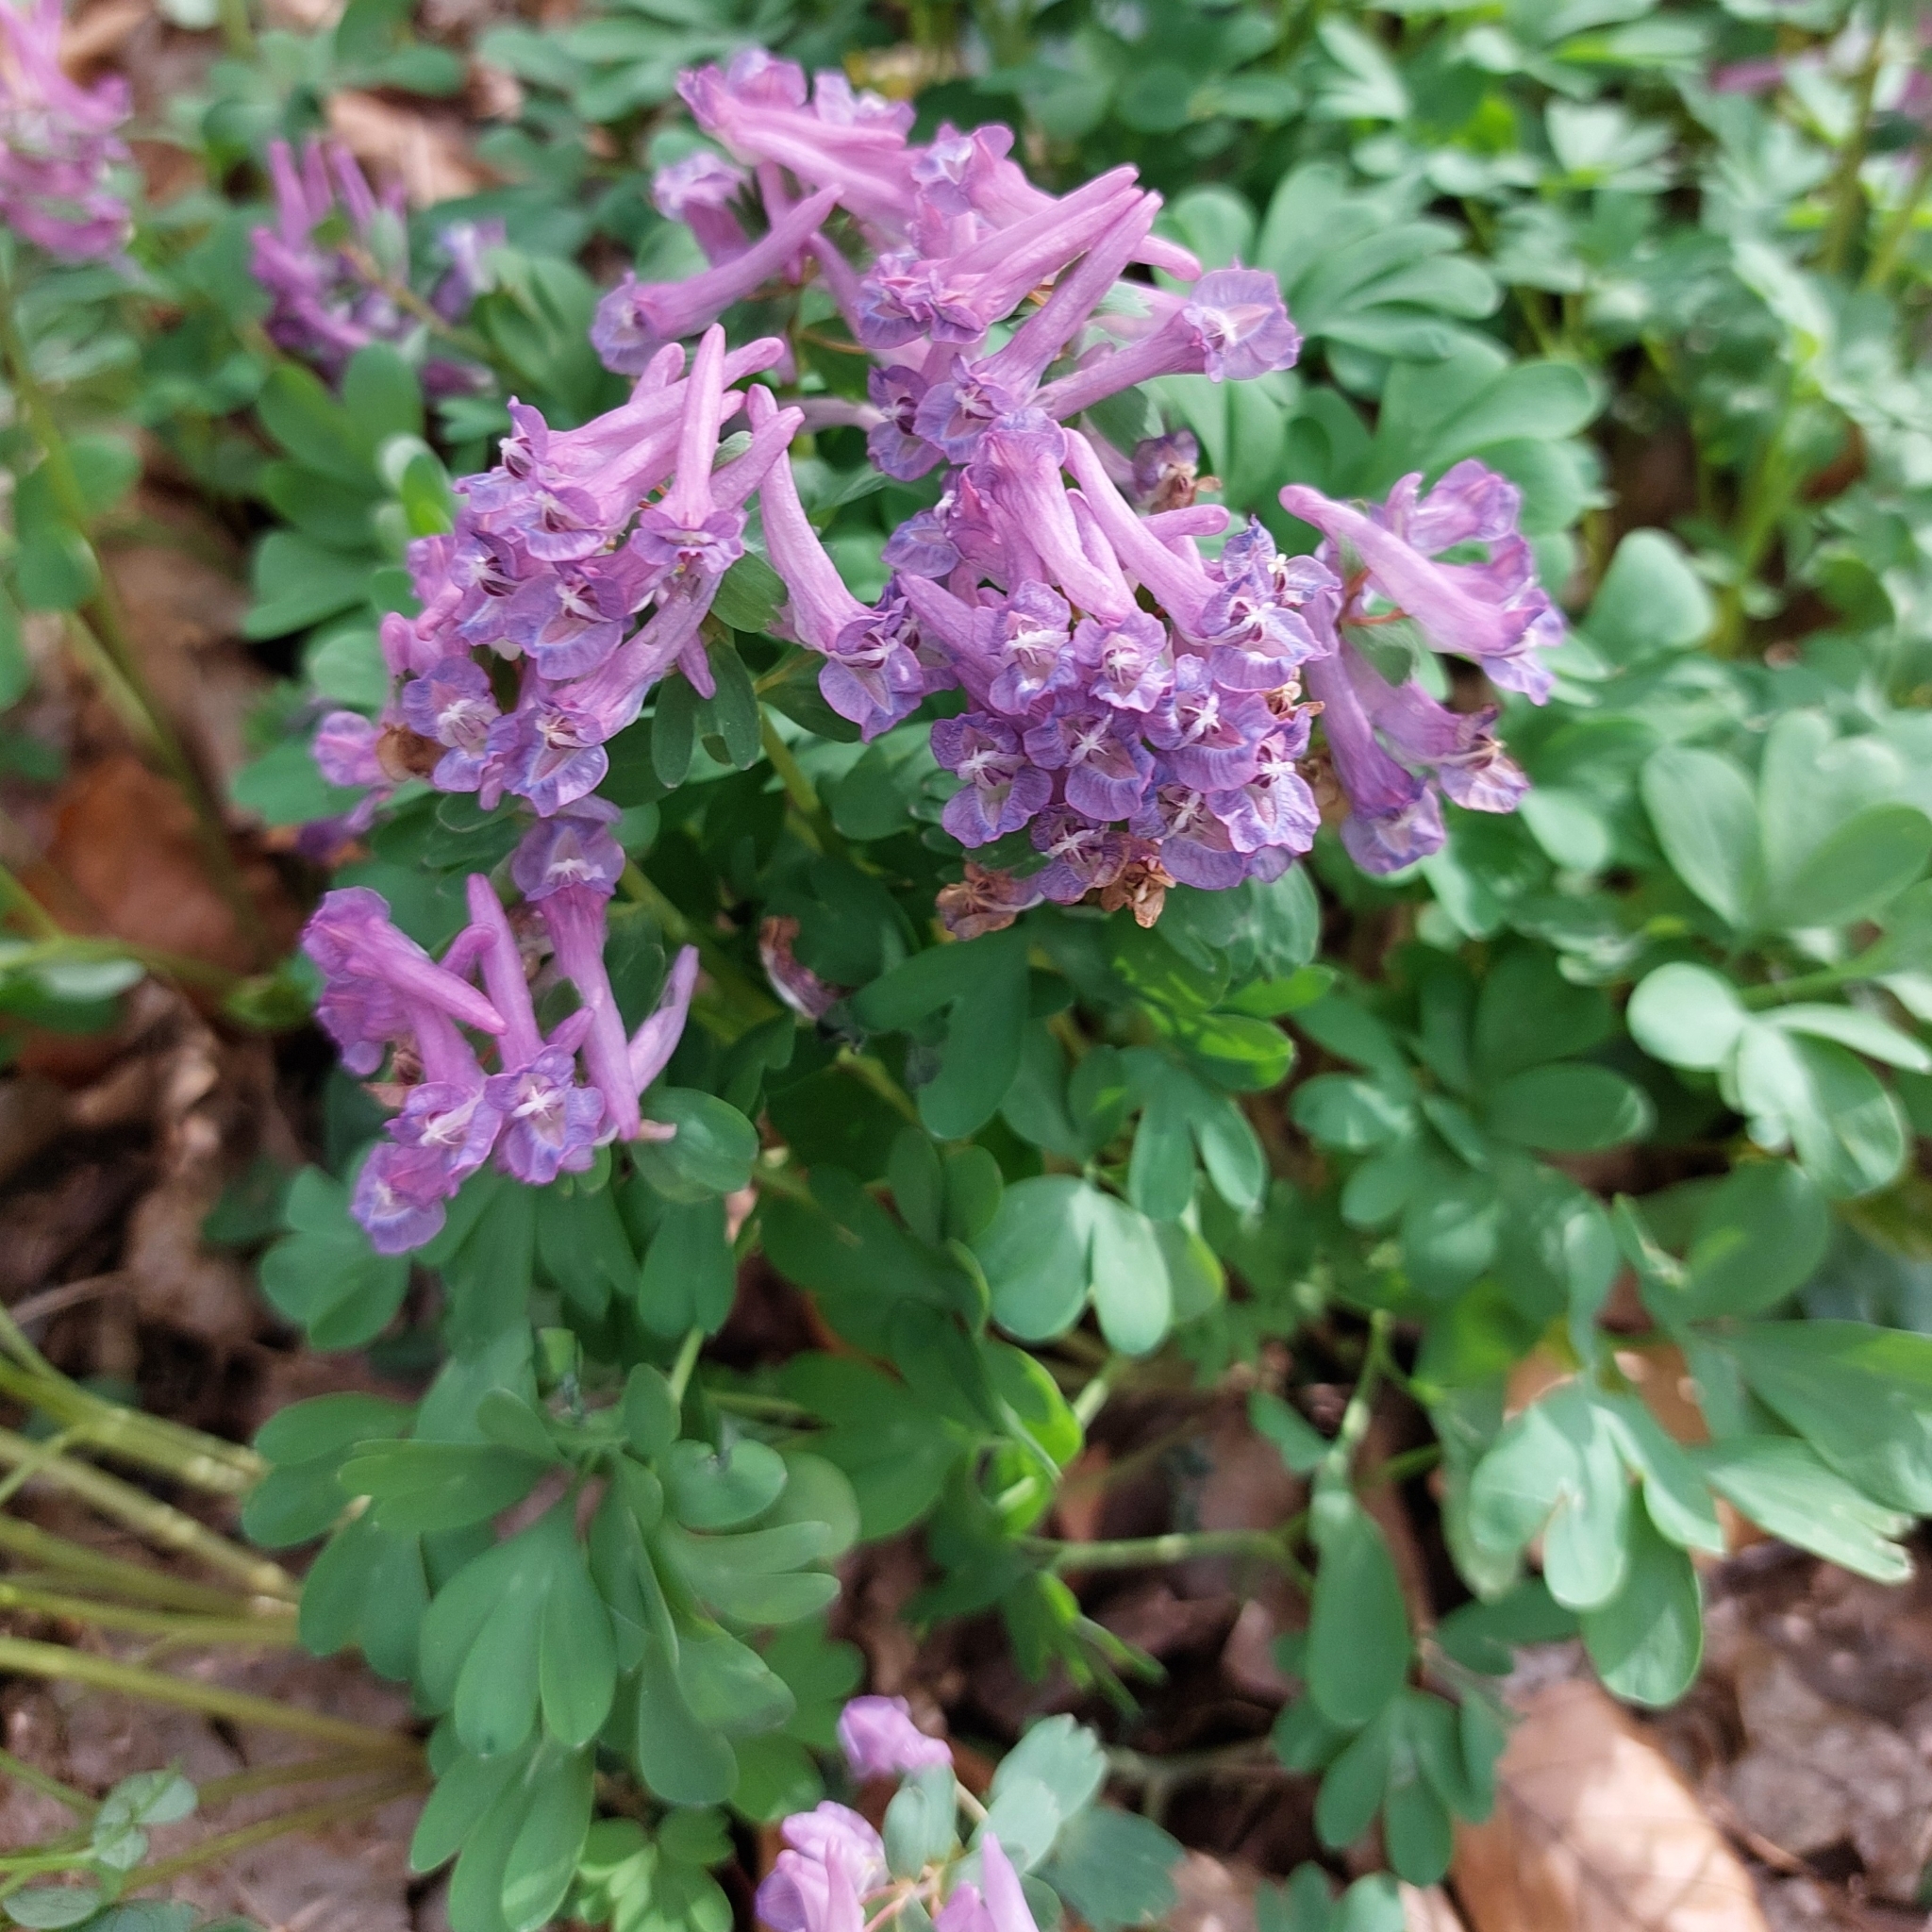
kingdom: Plantae
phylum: Tracheophyta
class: Magnoliopsida
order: Ranunculales
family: Papaveraceae
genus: Corydalis
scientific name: Corydalis solida
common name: Bird-in-a-bush
